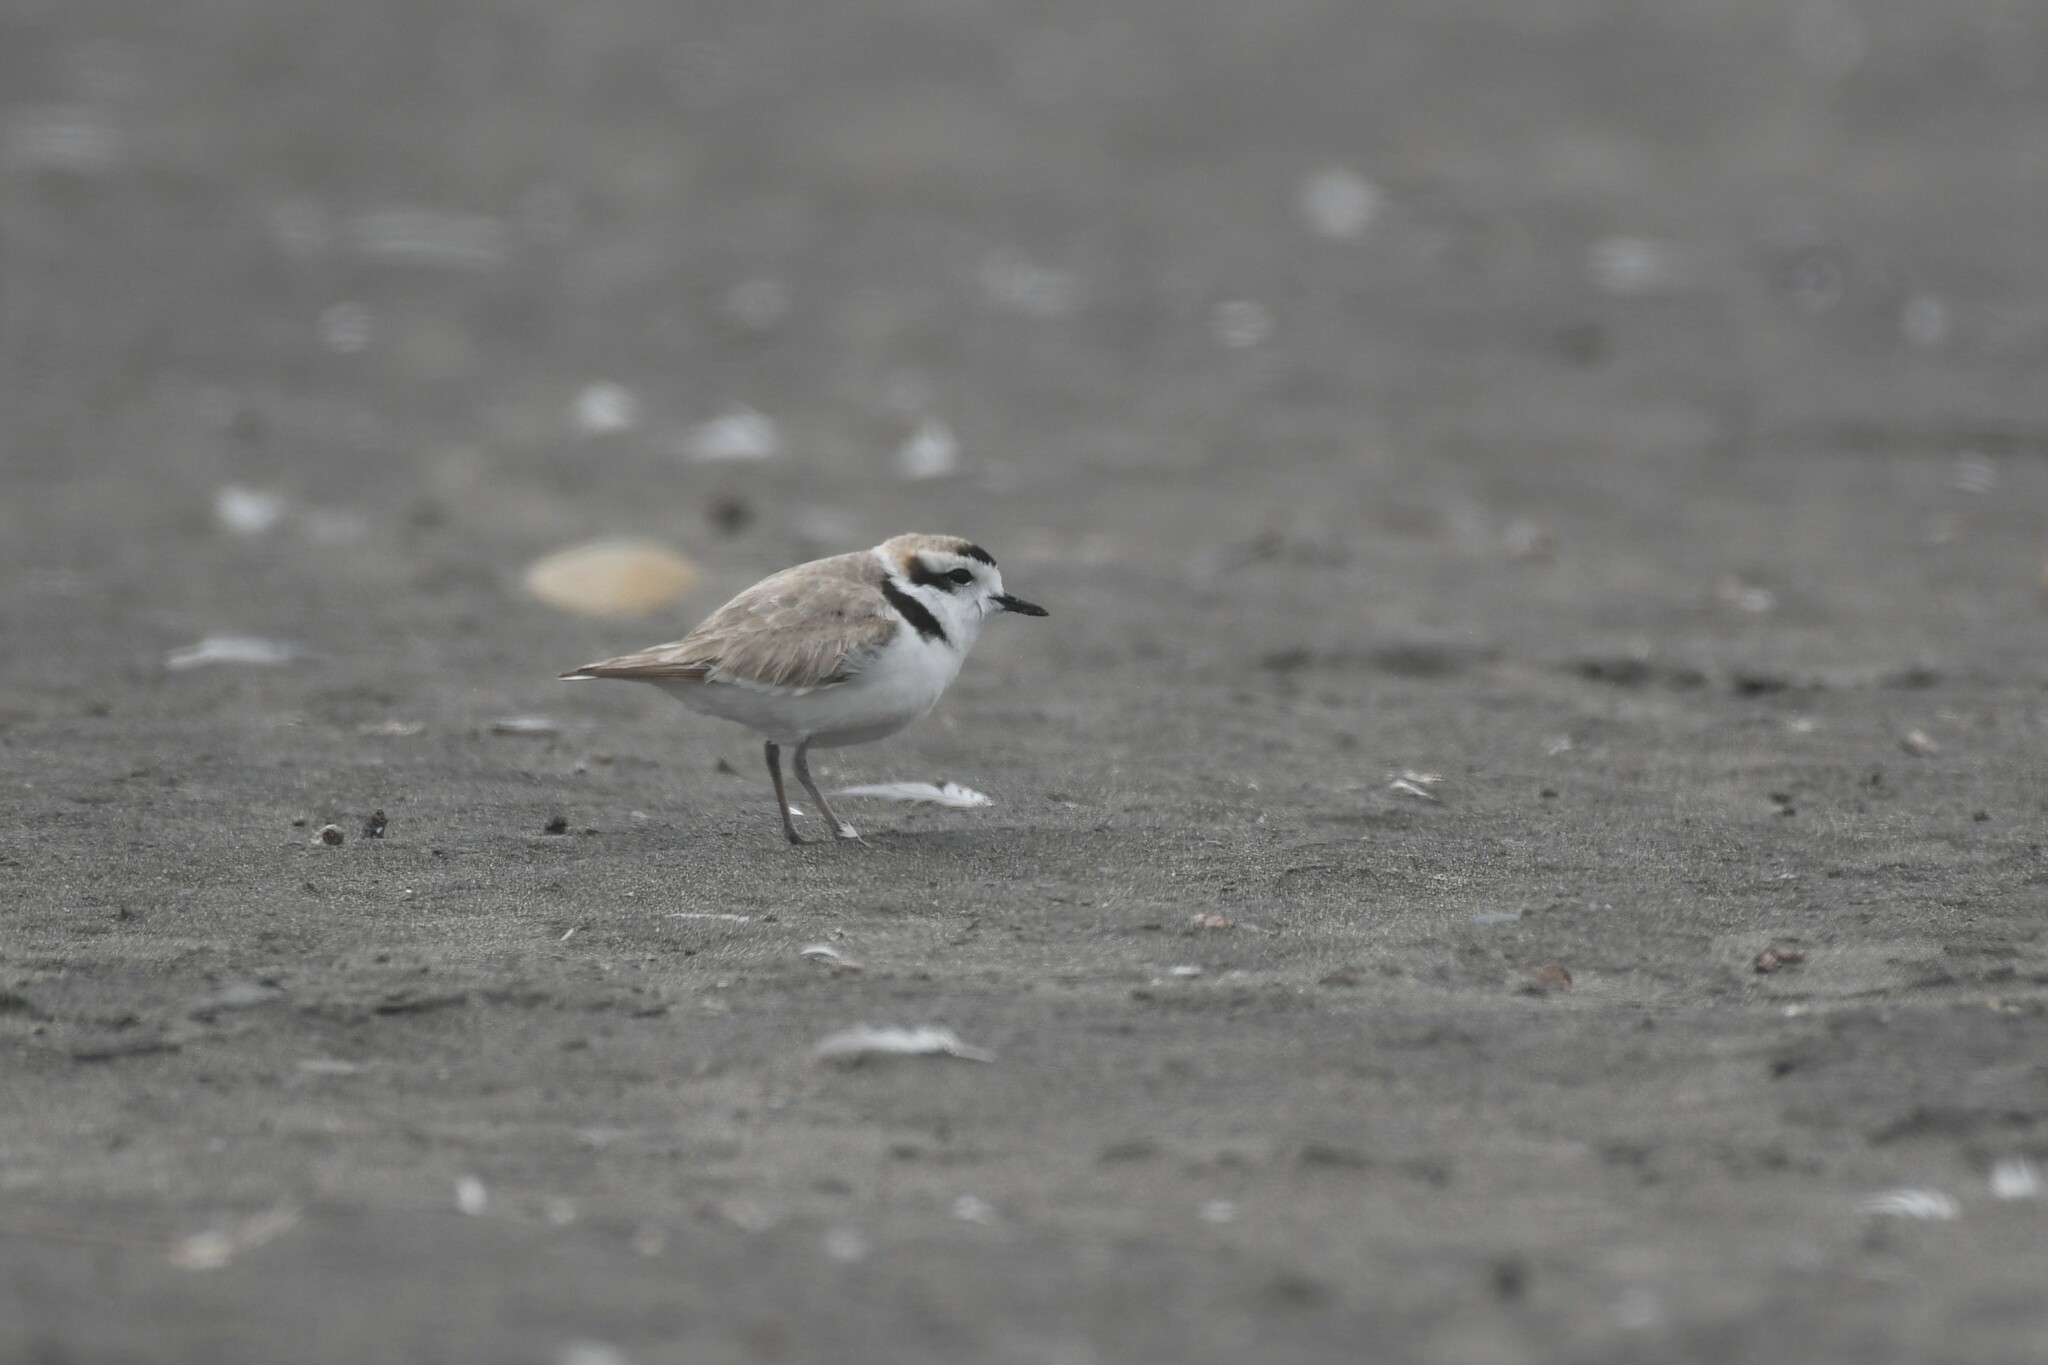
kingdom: Animalia
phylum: Chordata
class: Aves
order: Charadriiformes
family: Charadriidae
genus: Anarhynchus
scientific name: Anarhynchus
